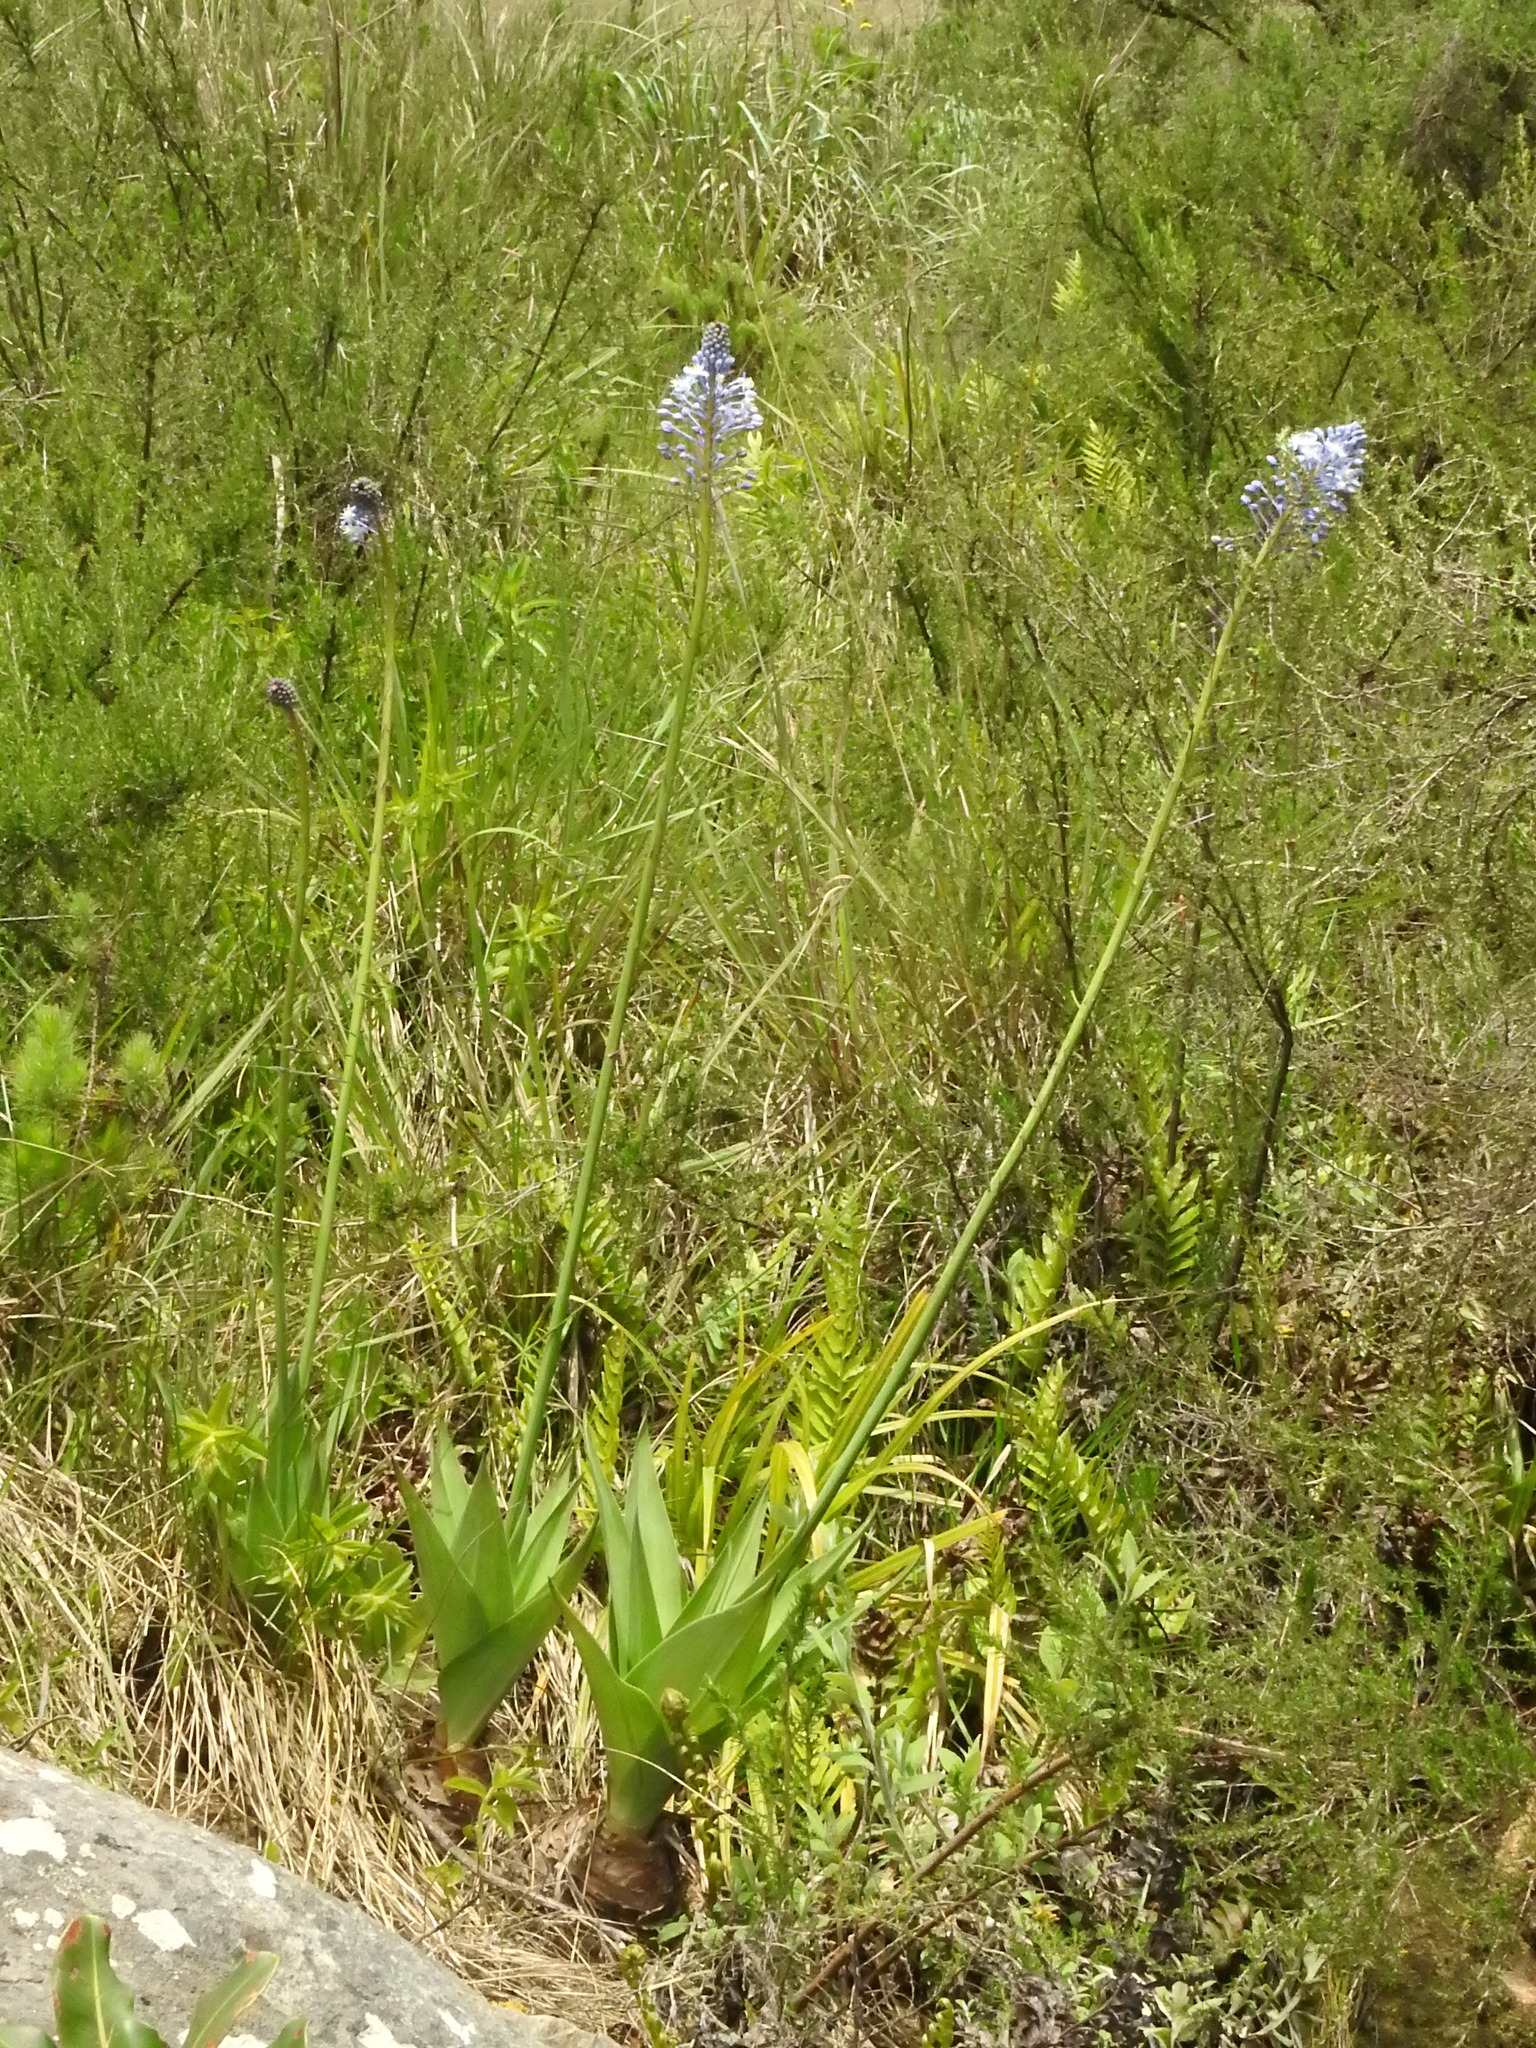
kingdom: Plantae
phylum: Tracheophyta
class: Liliopsida
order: Asparagales
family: Asparagaceae
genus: Merwilla
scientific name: Merwilla plumbea
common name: Blue-squill
